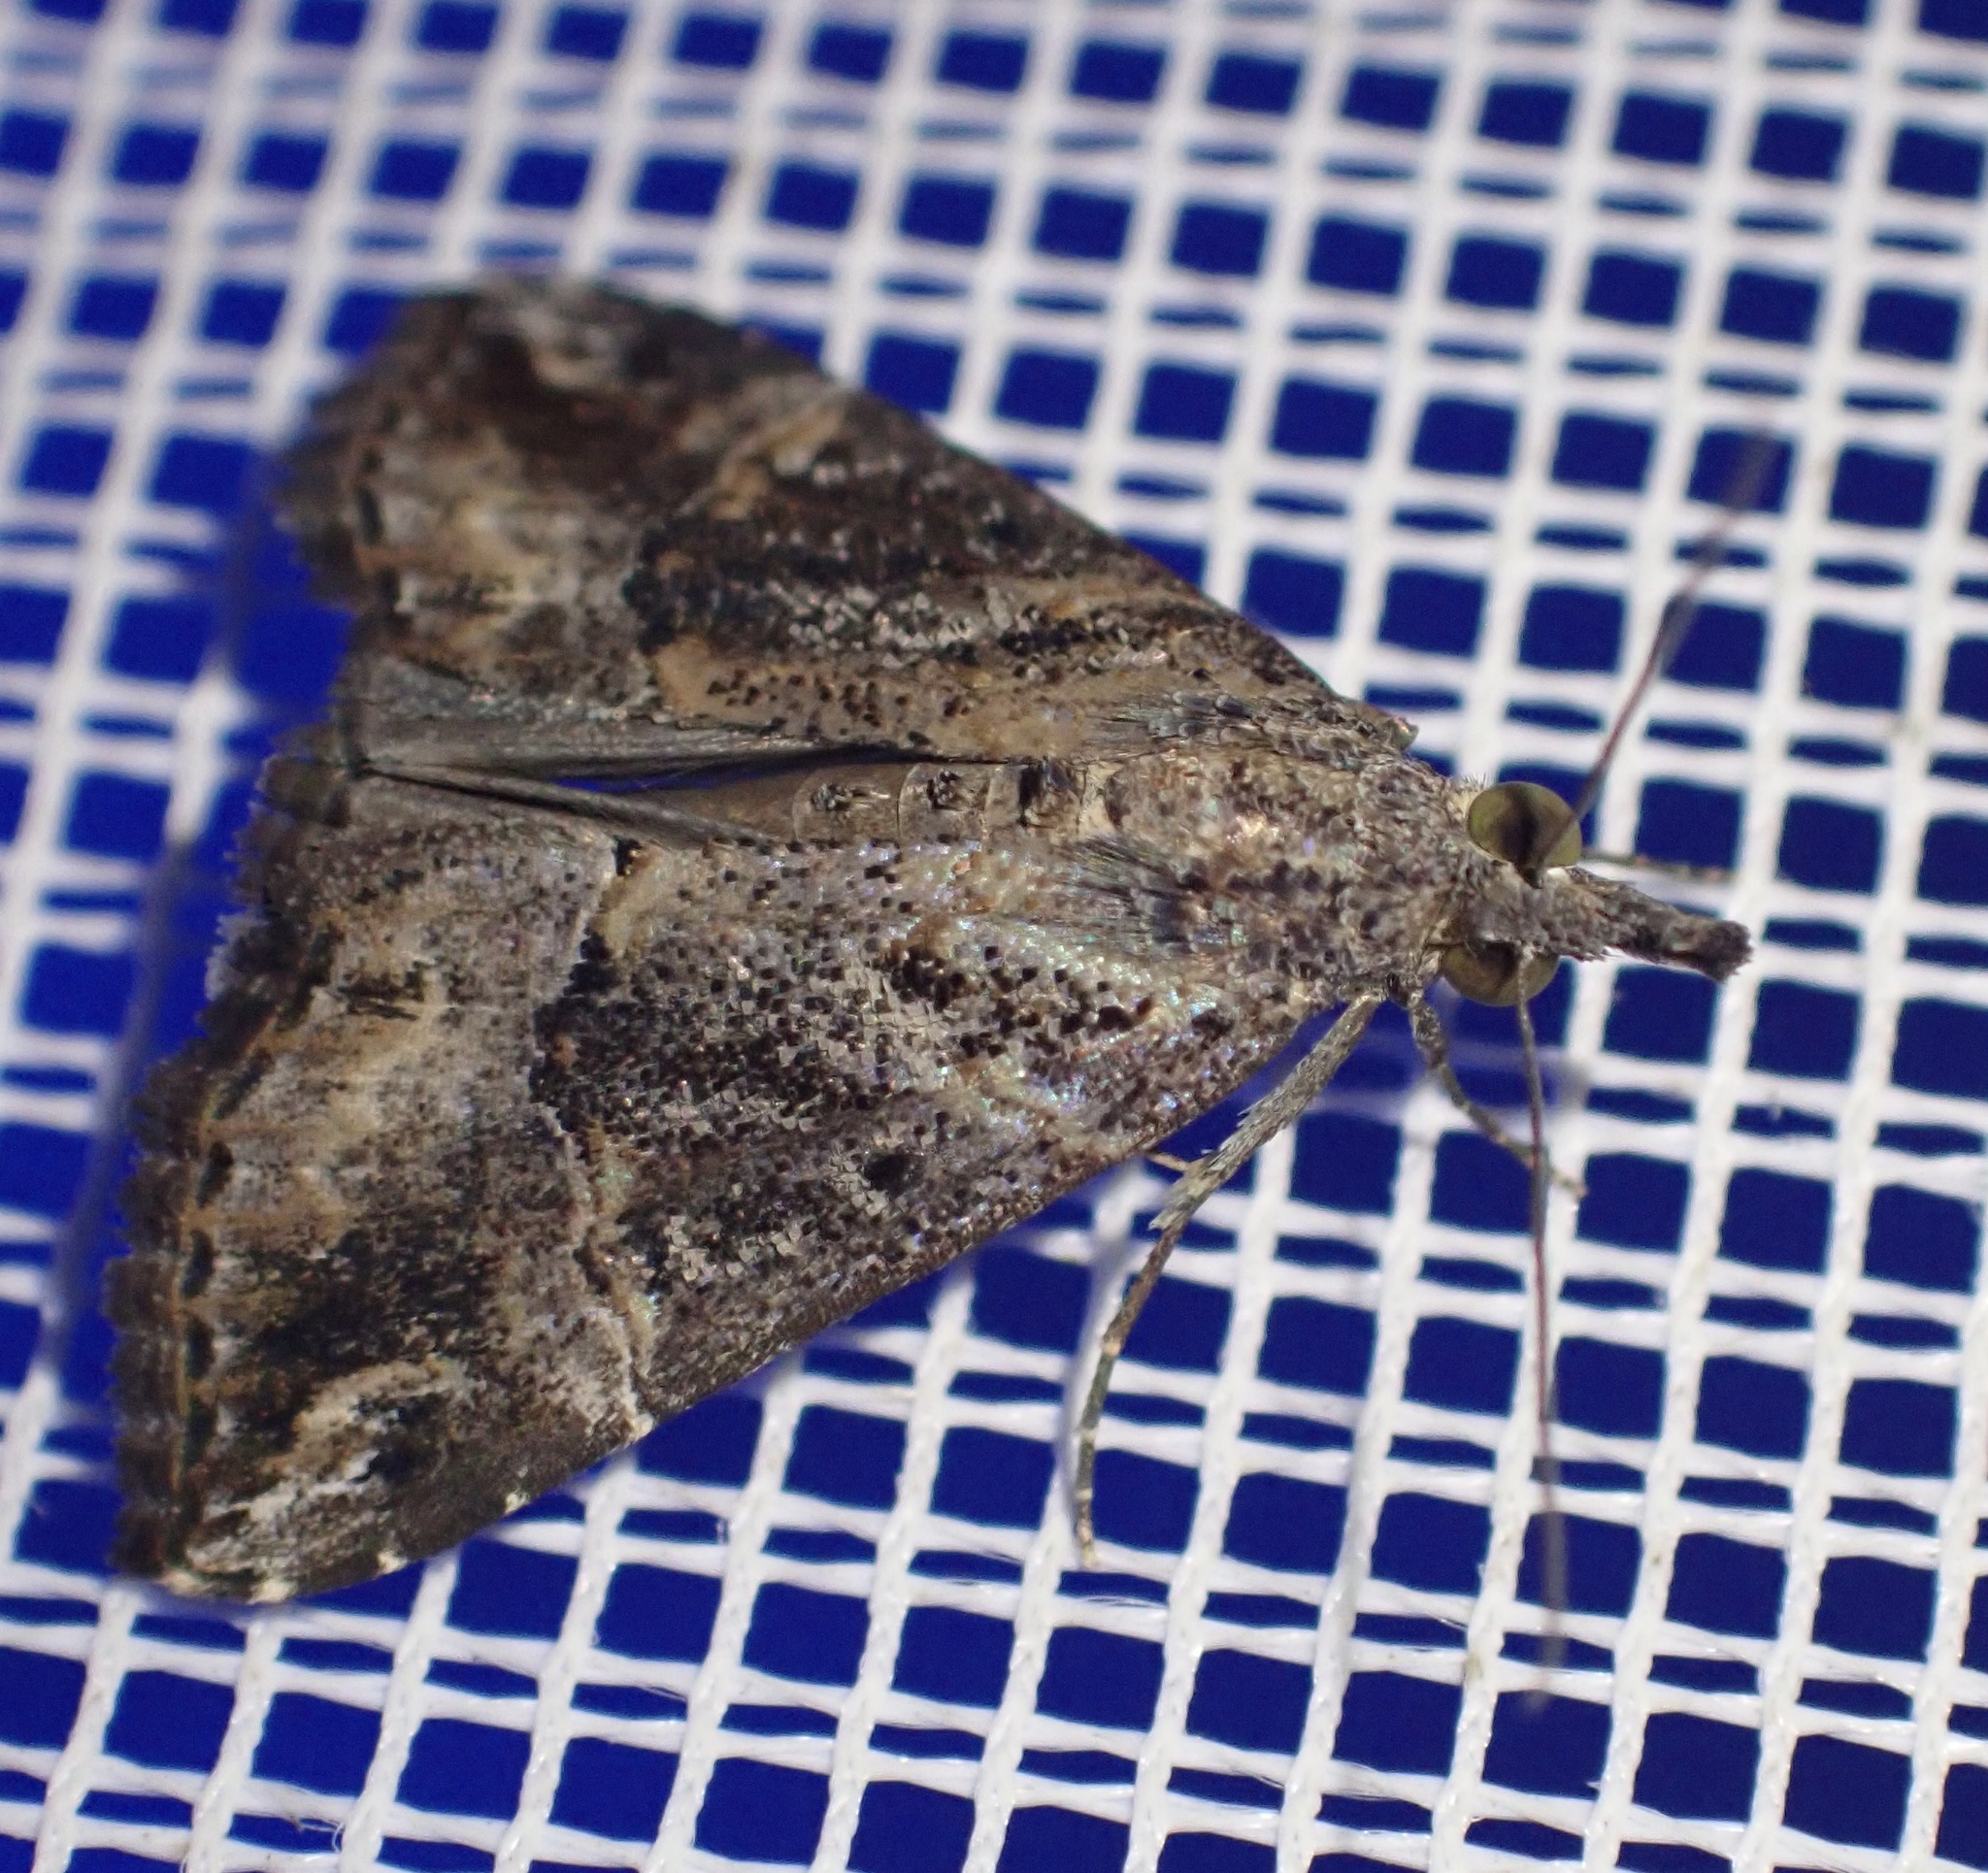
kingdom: Animalia
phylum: Arthropoda
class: Insecta
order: Lepidoptera
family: Erebidae
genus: Hypena
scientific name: Hypena commixtalis
